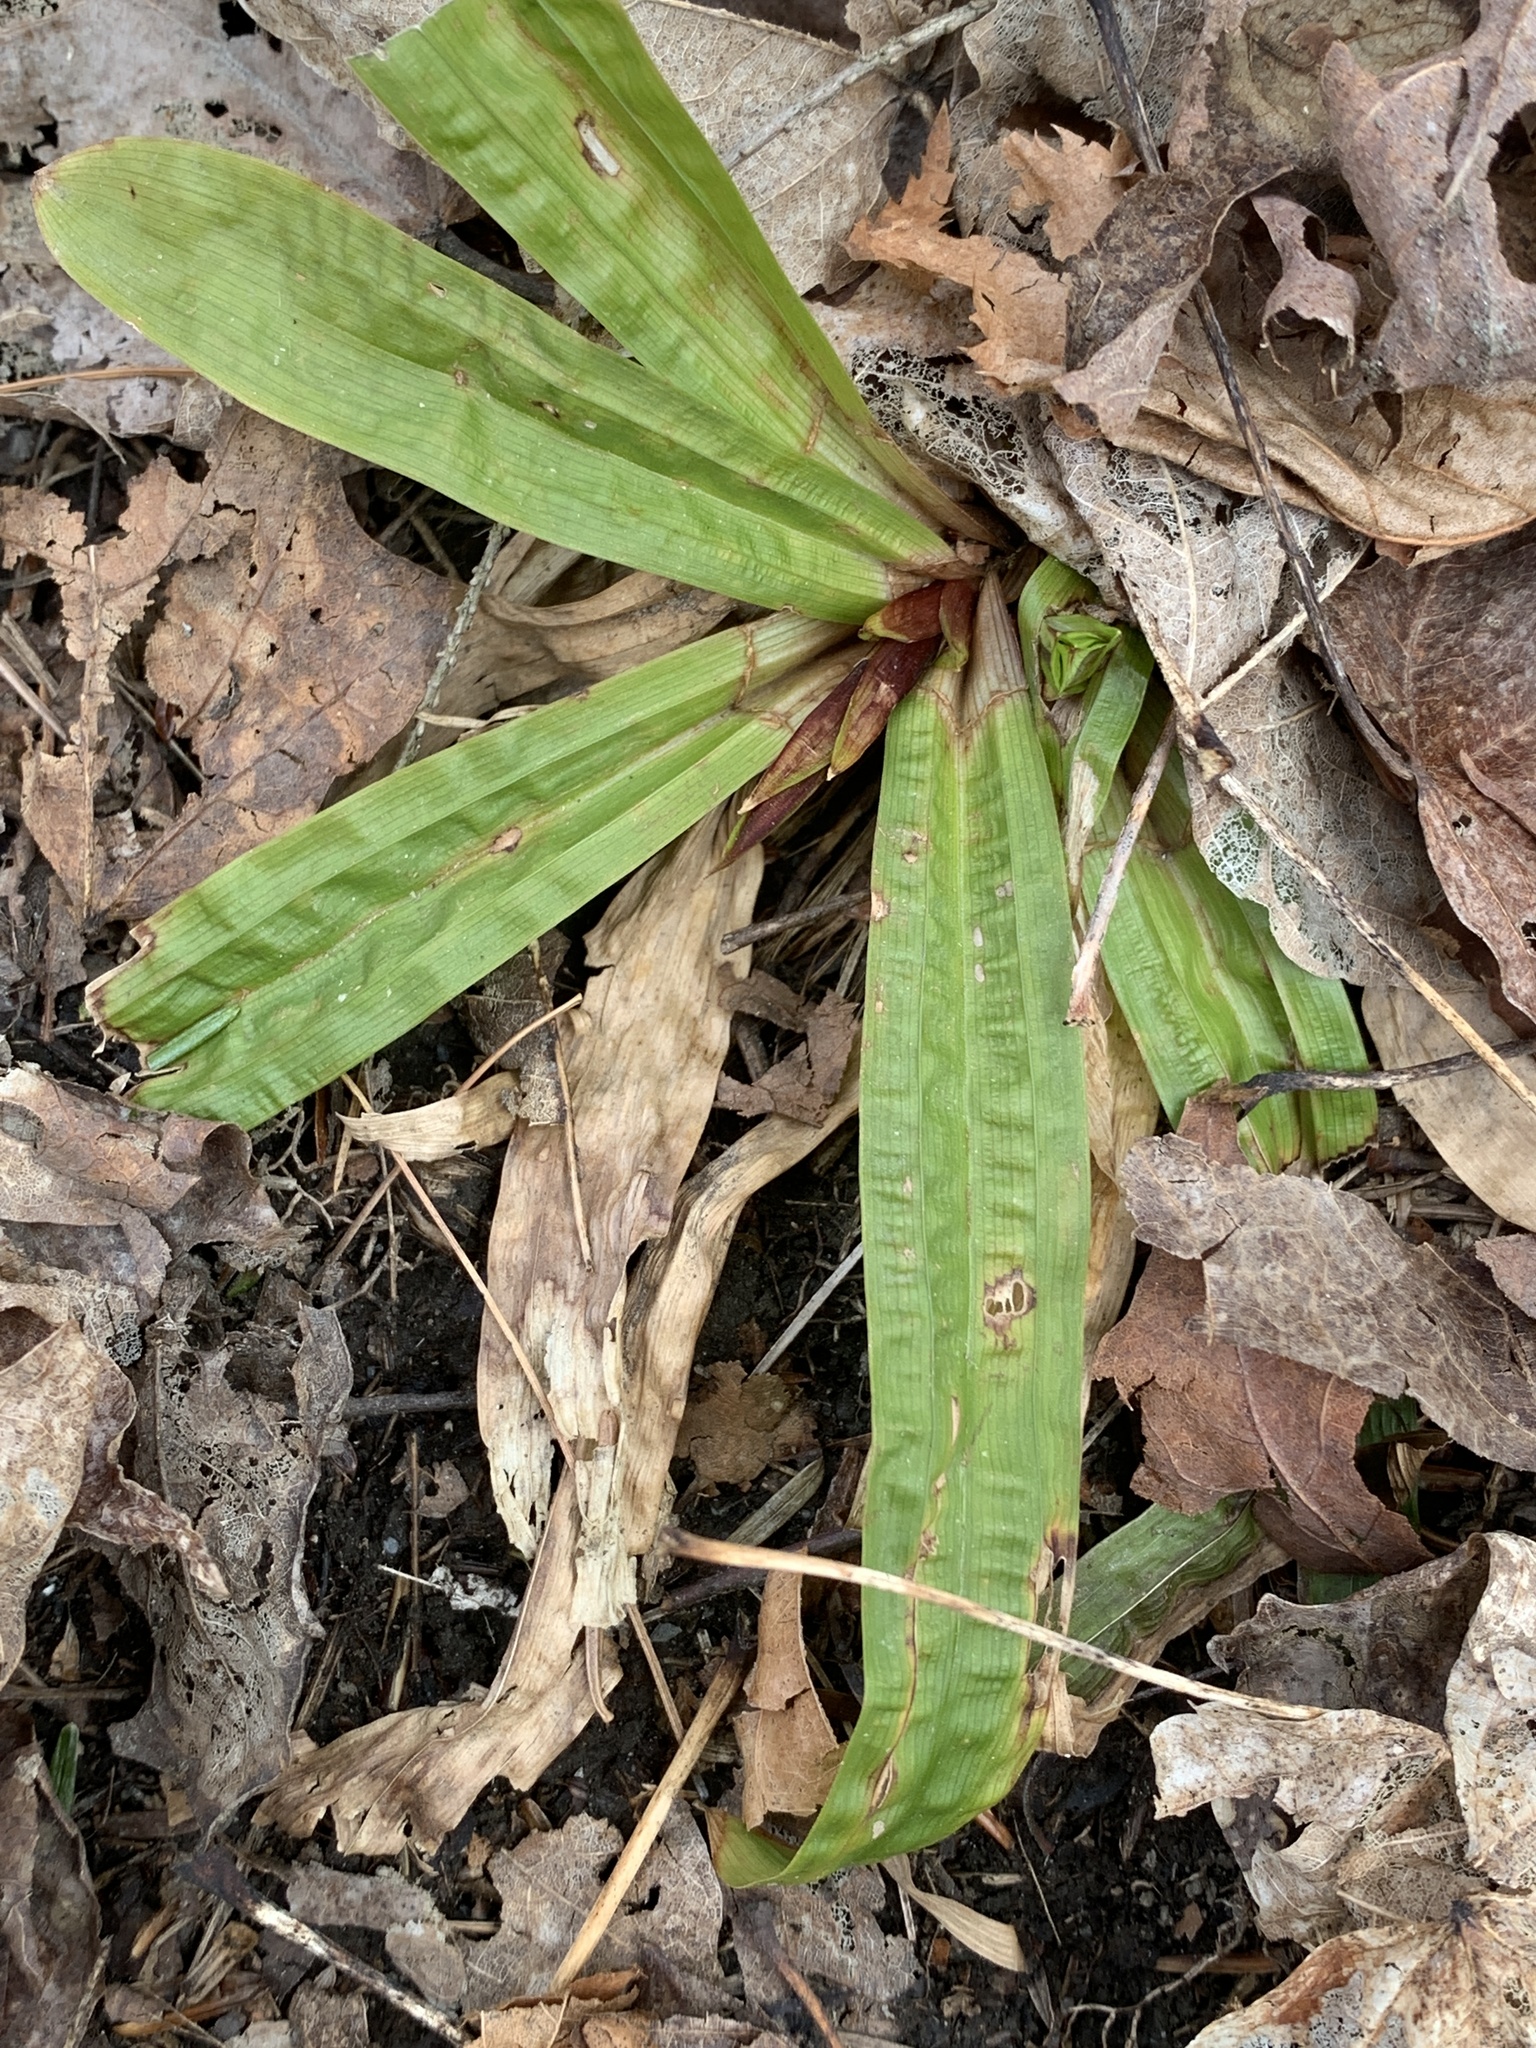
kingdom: Plantae
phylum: Tracheophyta
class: Liliopsida
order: Poales
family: Cyperaceae
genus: Carex
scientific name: Carex plantaginea
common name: Plantain-leaved sedge
